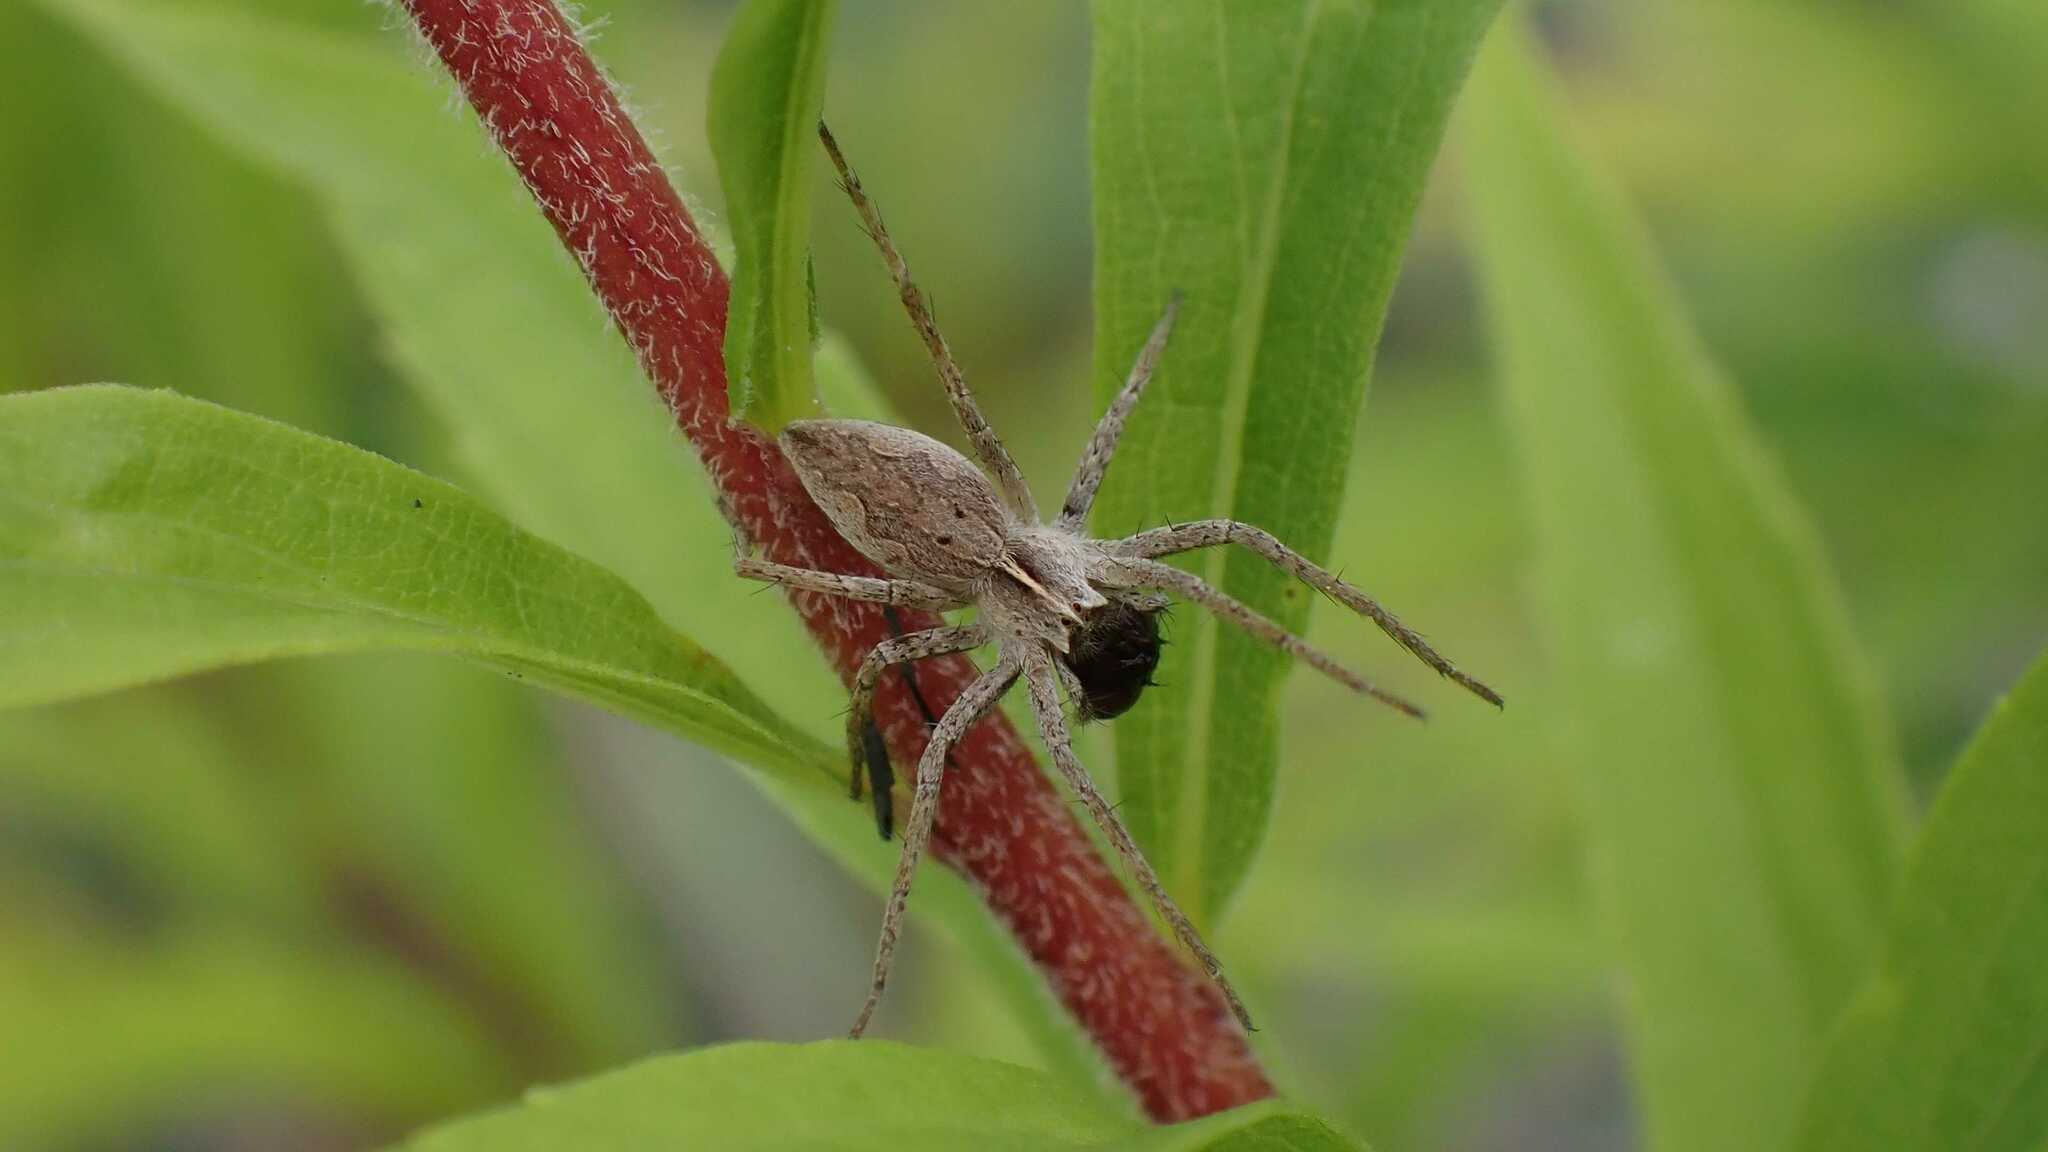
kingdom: Animalia
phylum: Arthropoda
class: Arachnida
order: Araneae
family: Pisauridae
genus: Pisaura
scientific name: Pisaura mirabilis
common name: Tent spider
